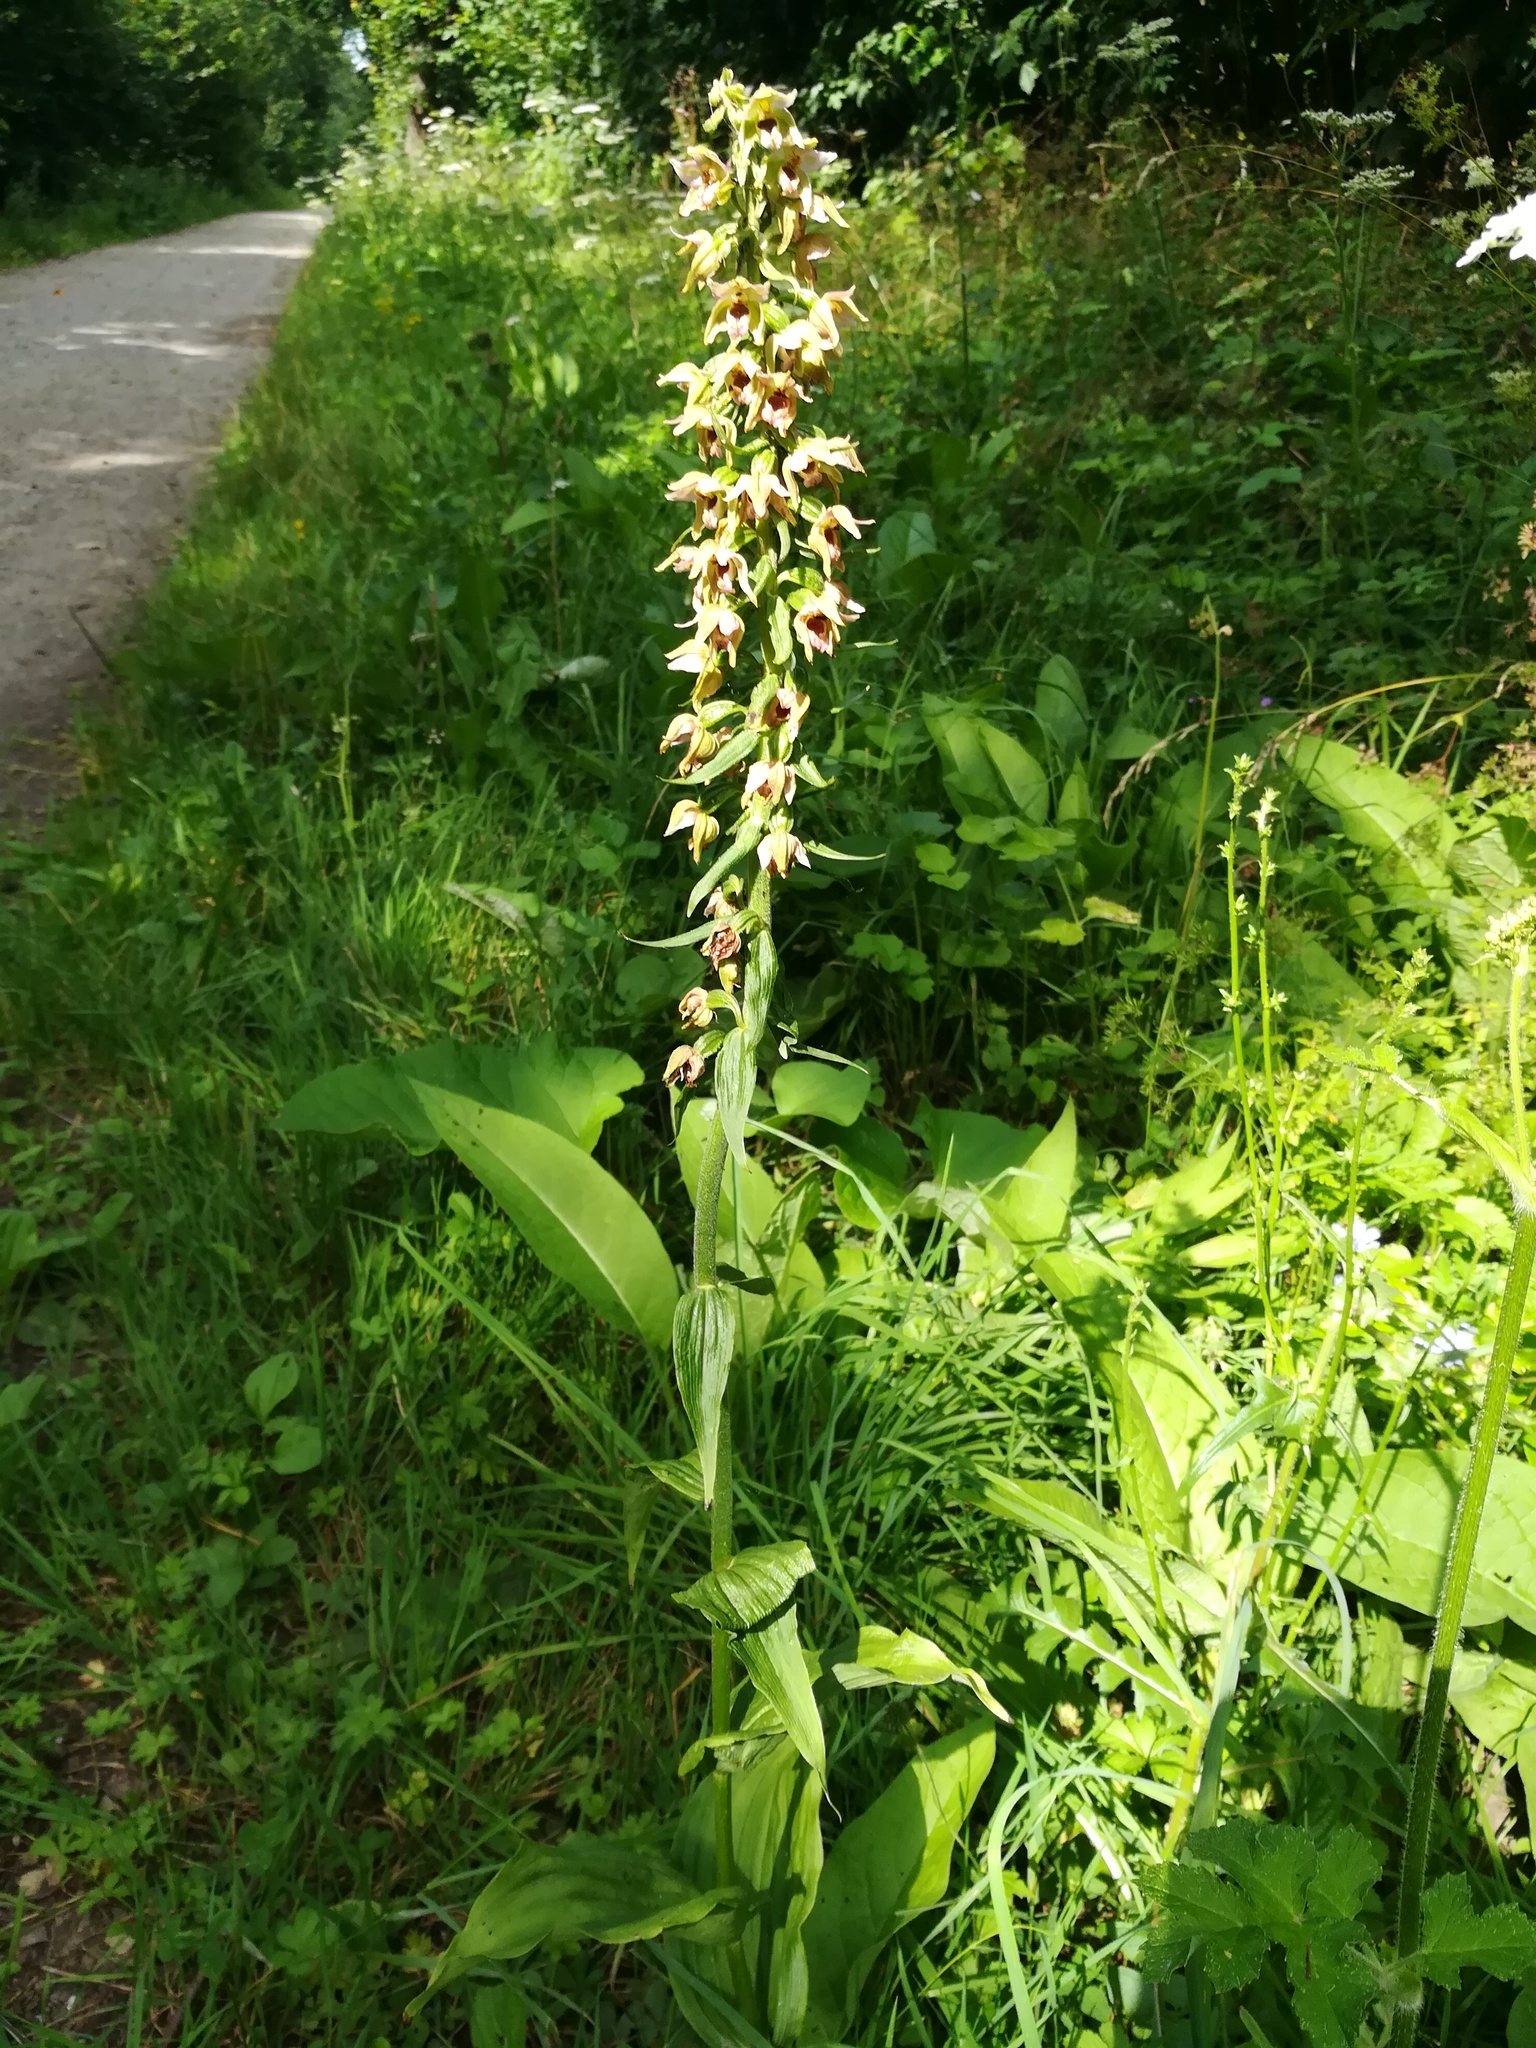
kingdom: Plantae
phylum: Tracheophyta
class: Liliopsida
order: Asparagales
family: Orchidaceae
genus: Epipactis
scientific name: Epipactis helleborine
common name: Broad-leaved helleborine
